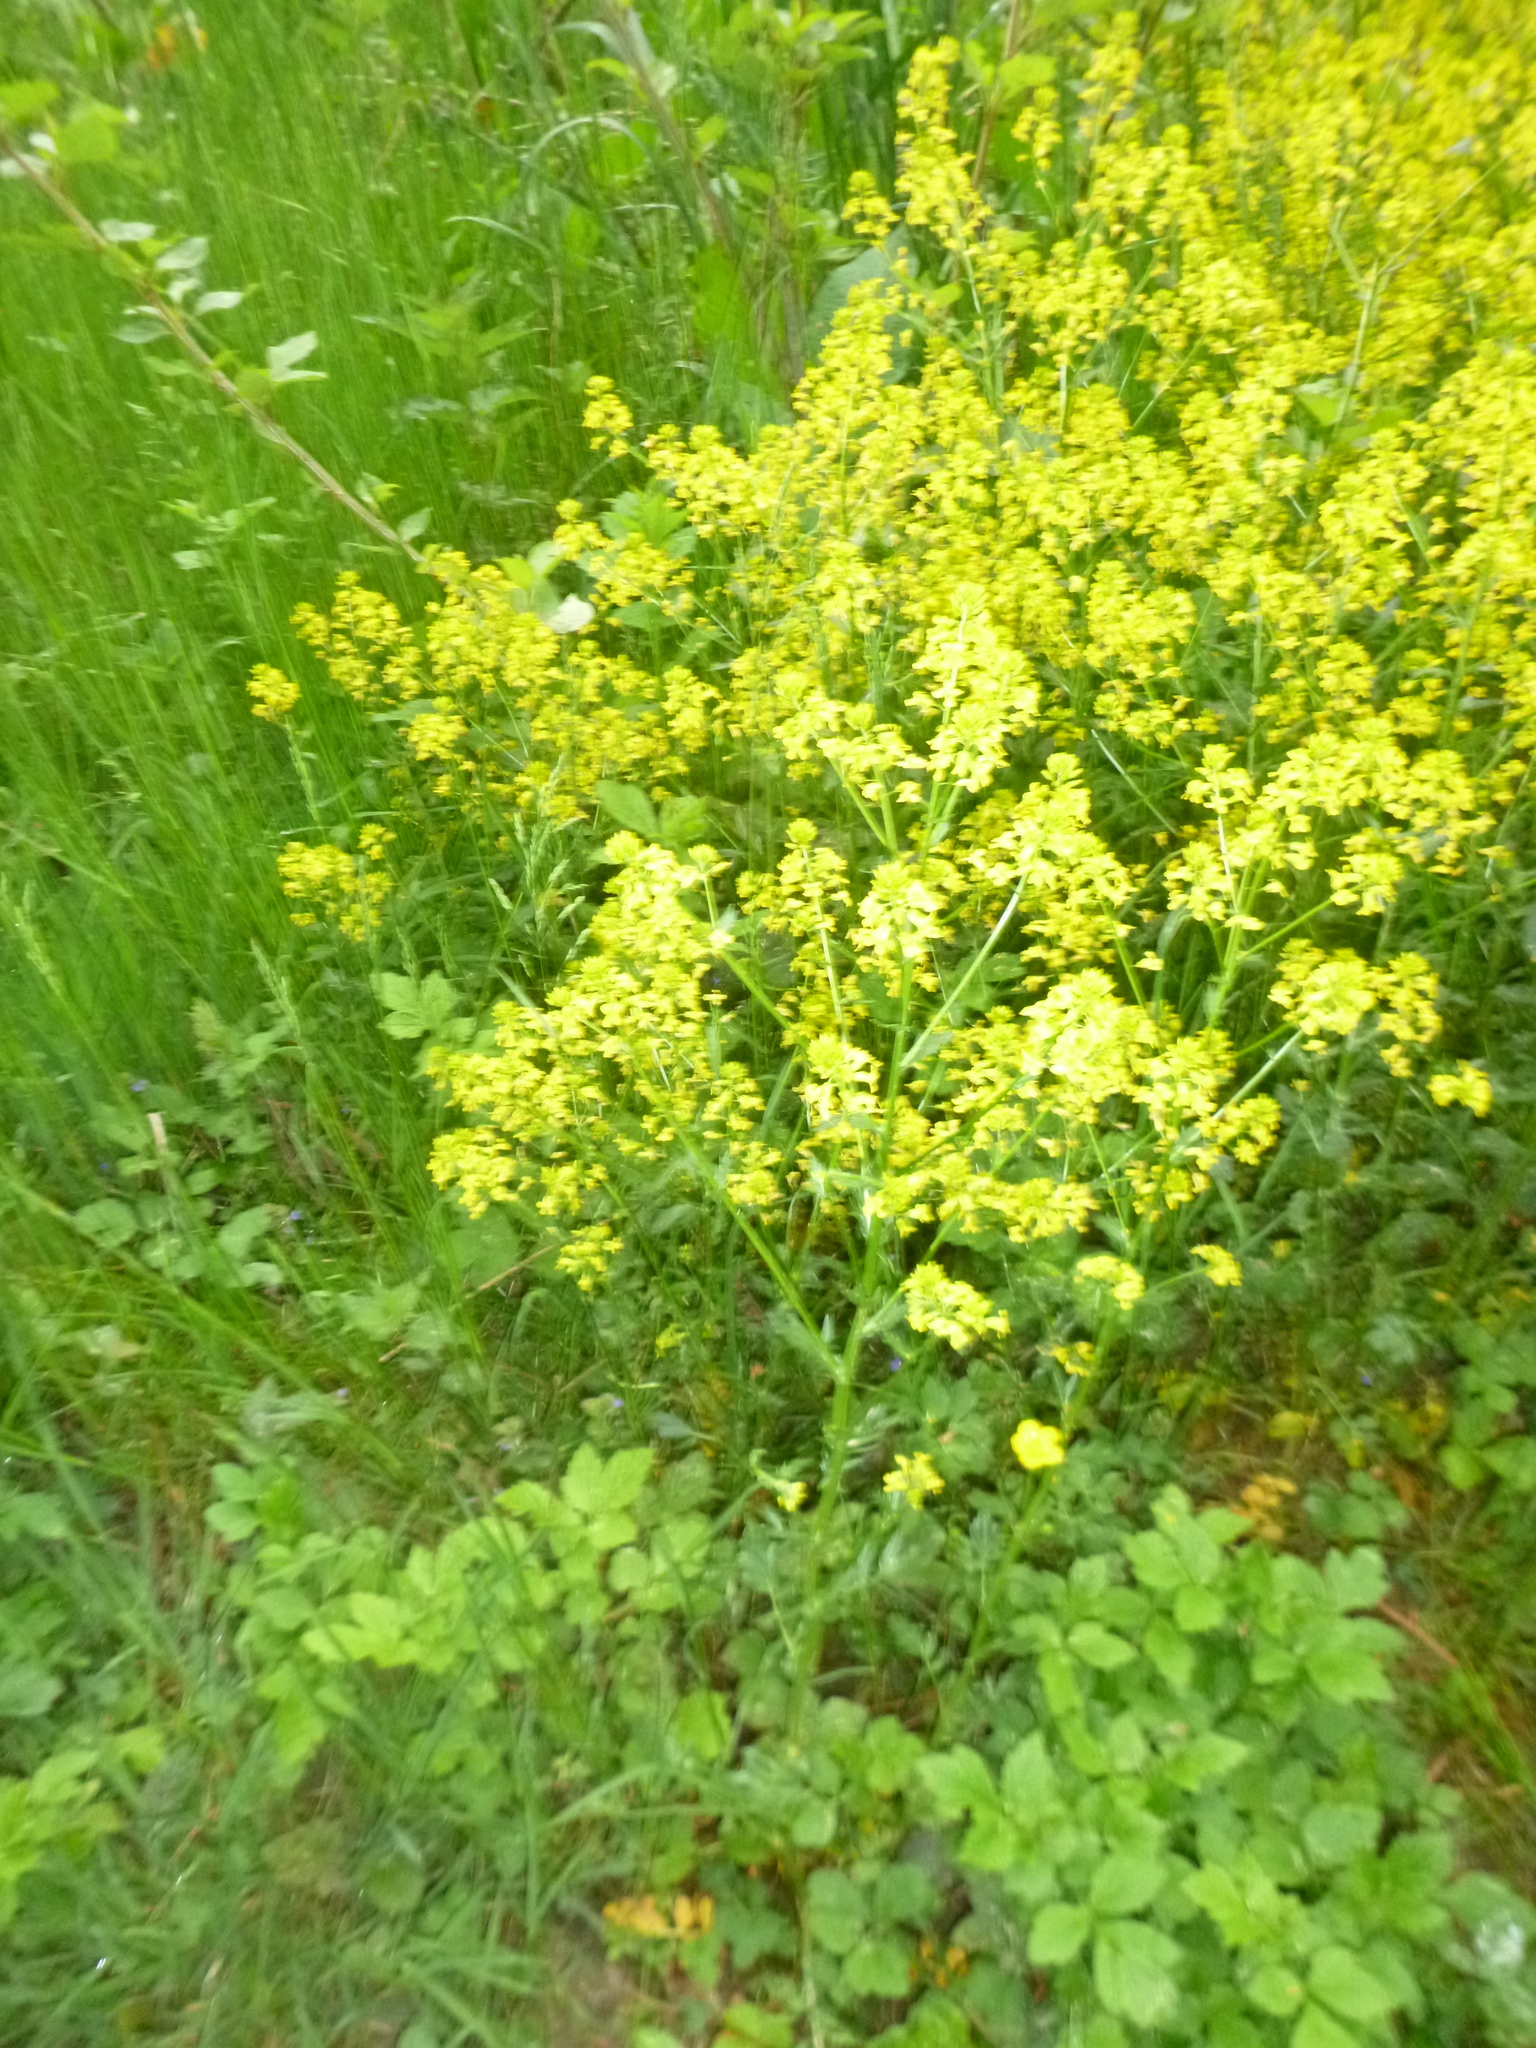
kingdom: Plantae
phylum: Tracheophyta
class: Magnoliopsida
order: Brassicales
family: Brassicaceae
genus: Barbarea
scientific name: Barbarea vulgaris
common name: Cressy-greens
